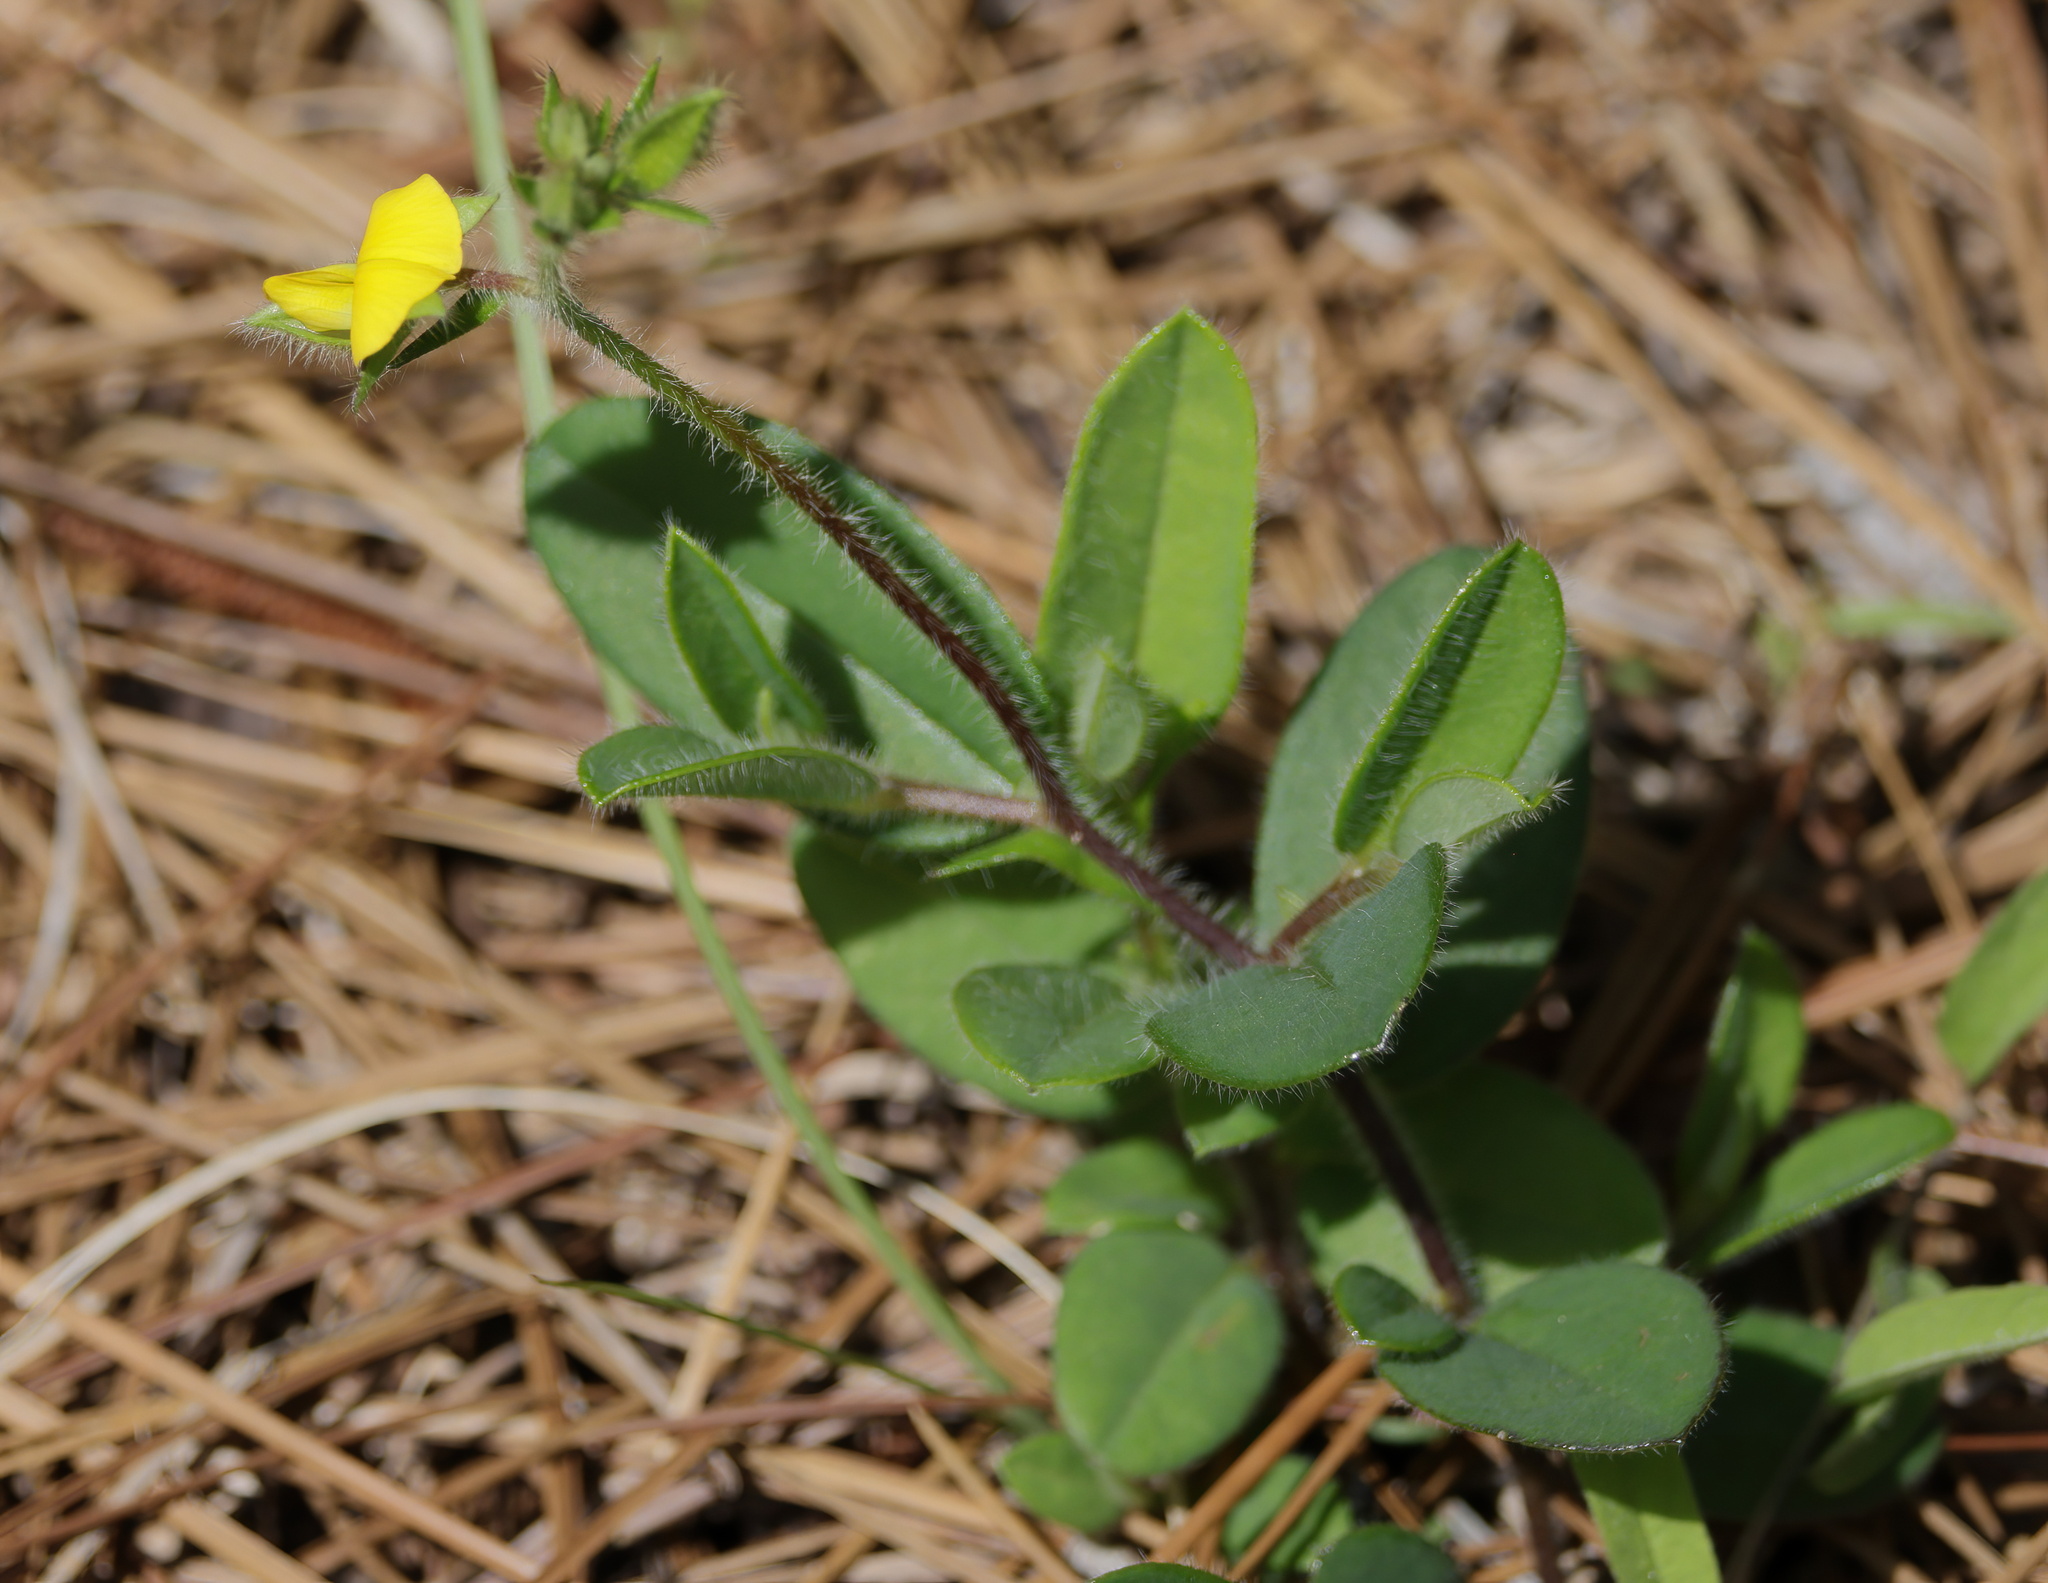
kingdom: Plantae
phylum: Tracheophyta
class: Magnoliopsida
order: Fabales
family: Fabaceae
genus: Crotalaria
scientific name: Crotalaria rotundifolia
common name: Prostrate rattlebox
